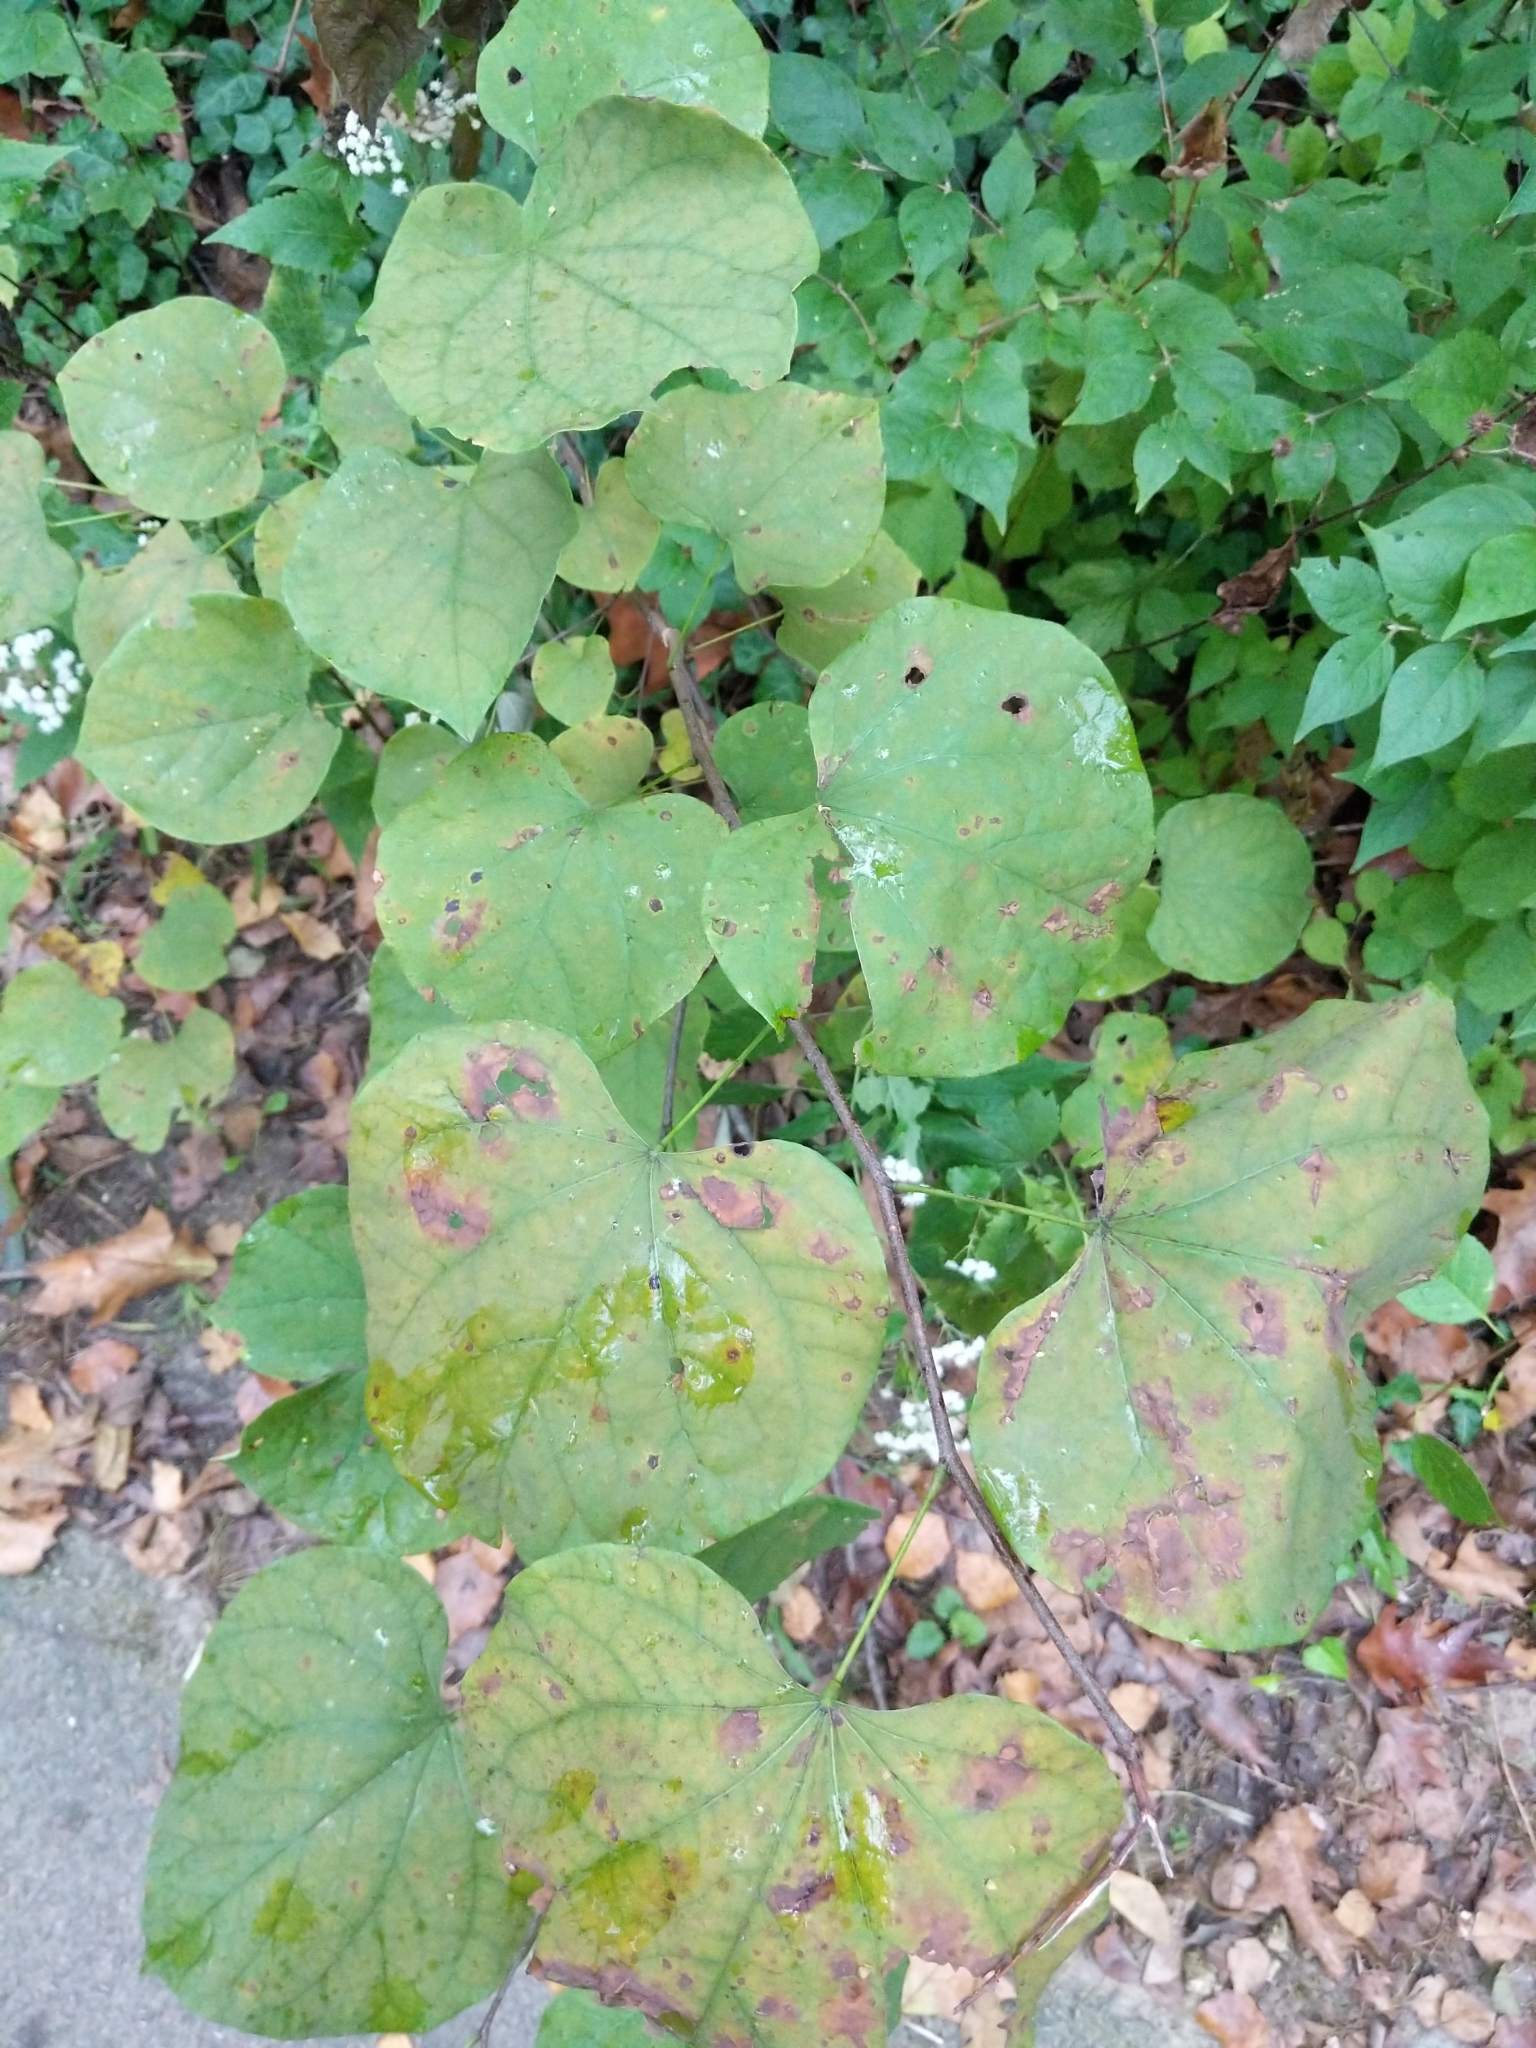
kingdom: Plantae
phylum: Tracheophyta
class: Magnoliopsida
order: Fabales
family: Fabaceae
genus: Cercis
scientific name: Cercis canadensis
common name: Eastern redbud
